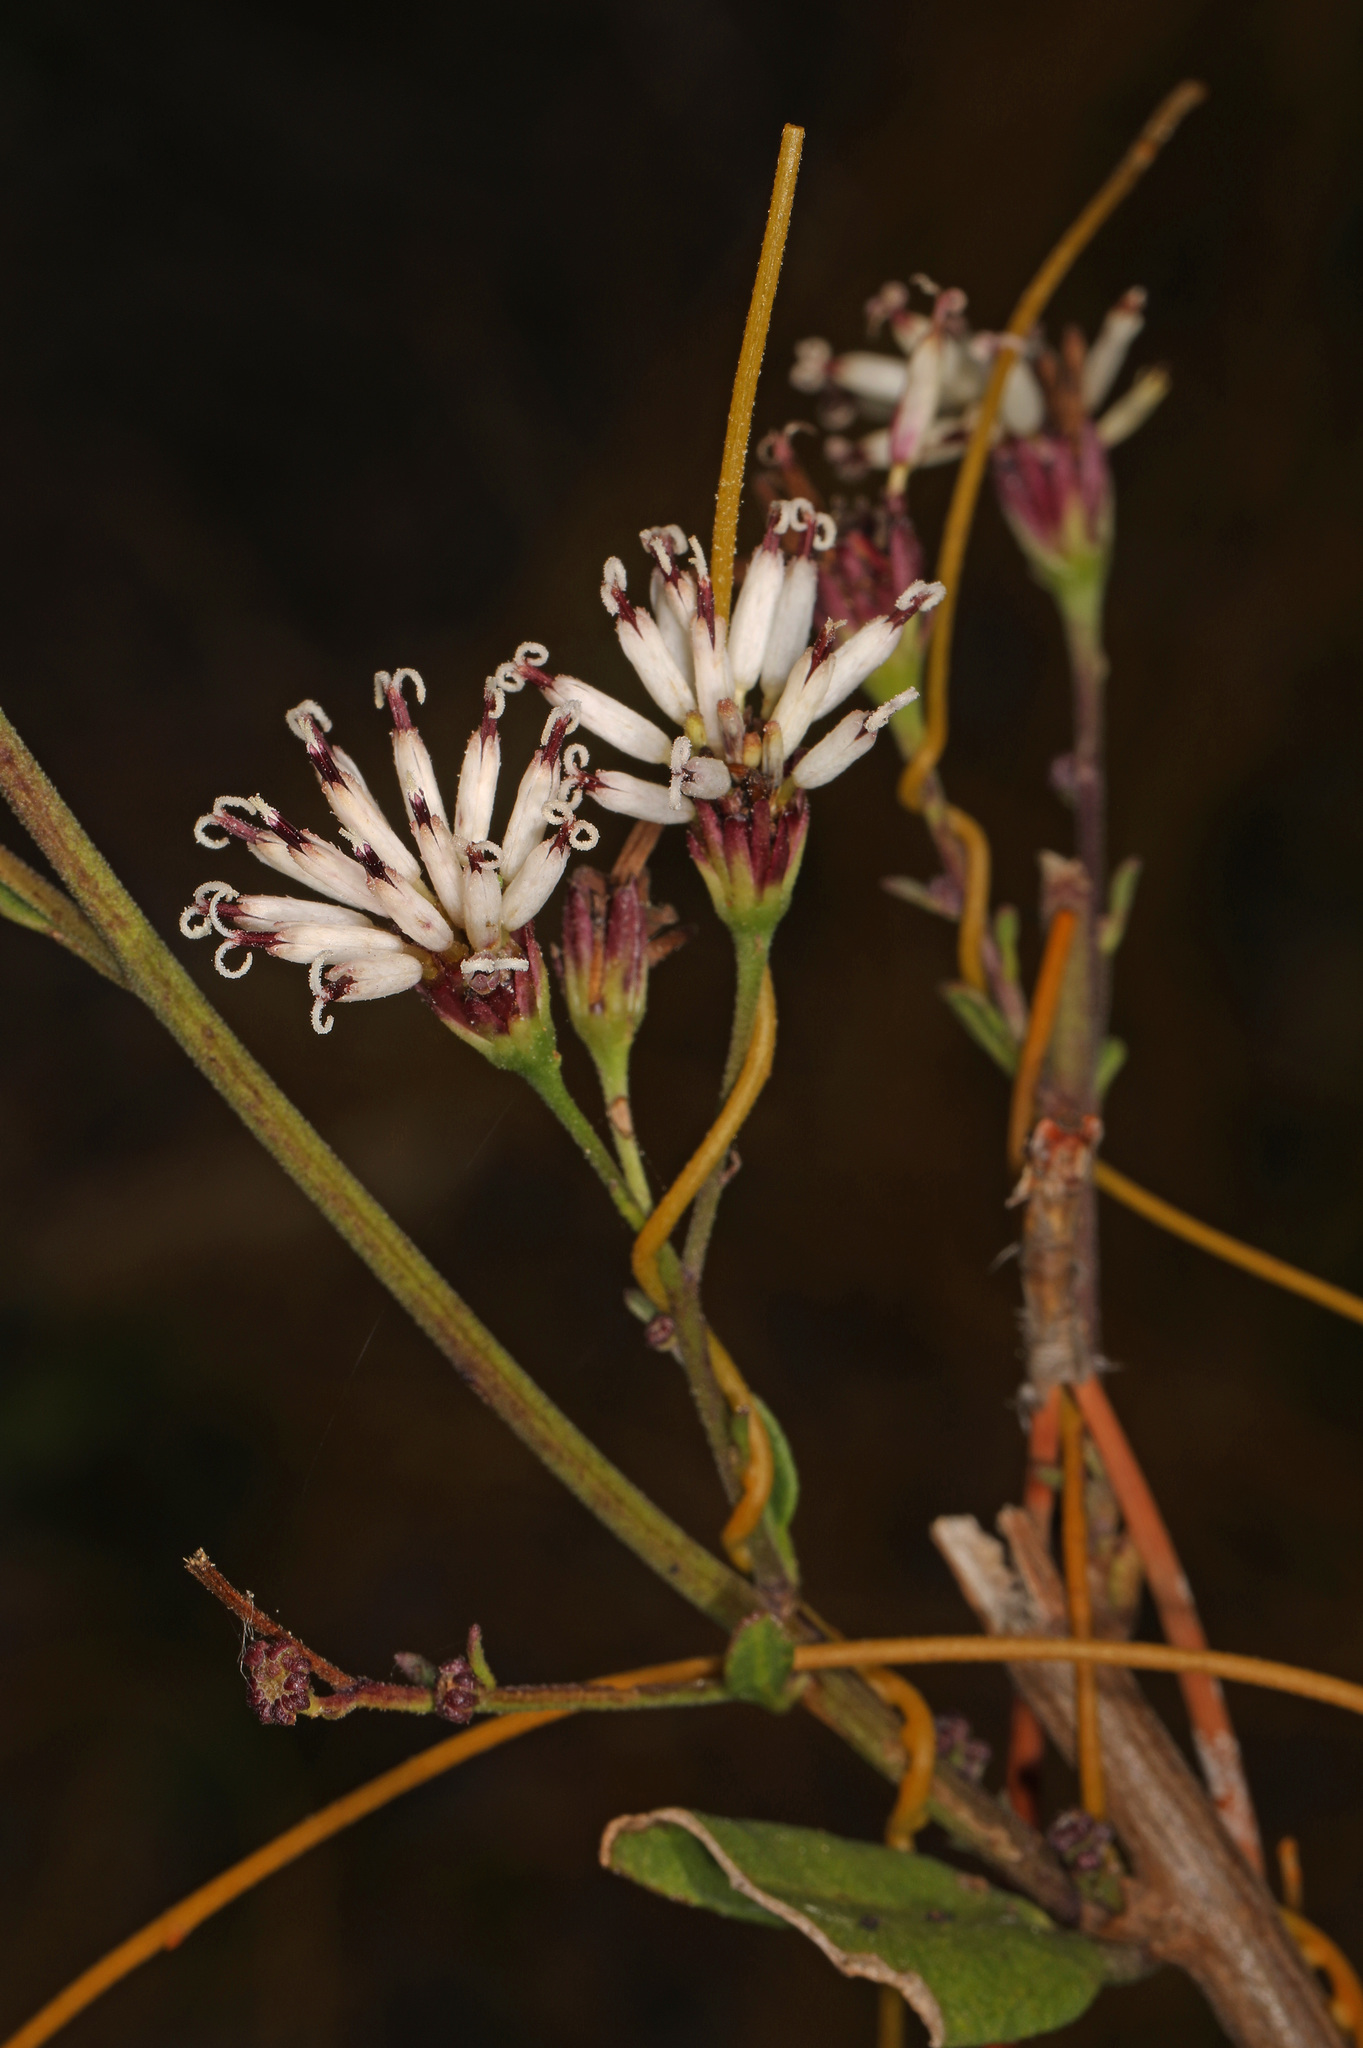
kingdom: Plantae
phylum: Tracheophyta
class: Magnoliopsida
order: Asterales
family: Asteraceae
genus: Palafoxia
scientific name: Palafoxia feayi
